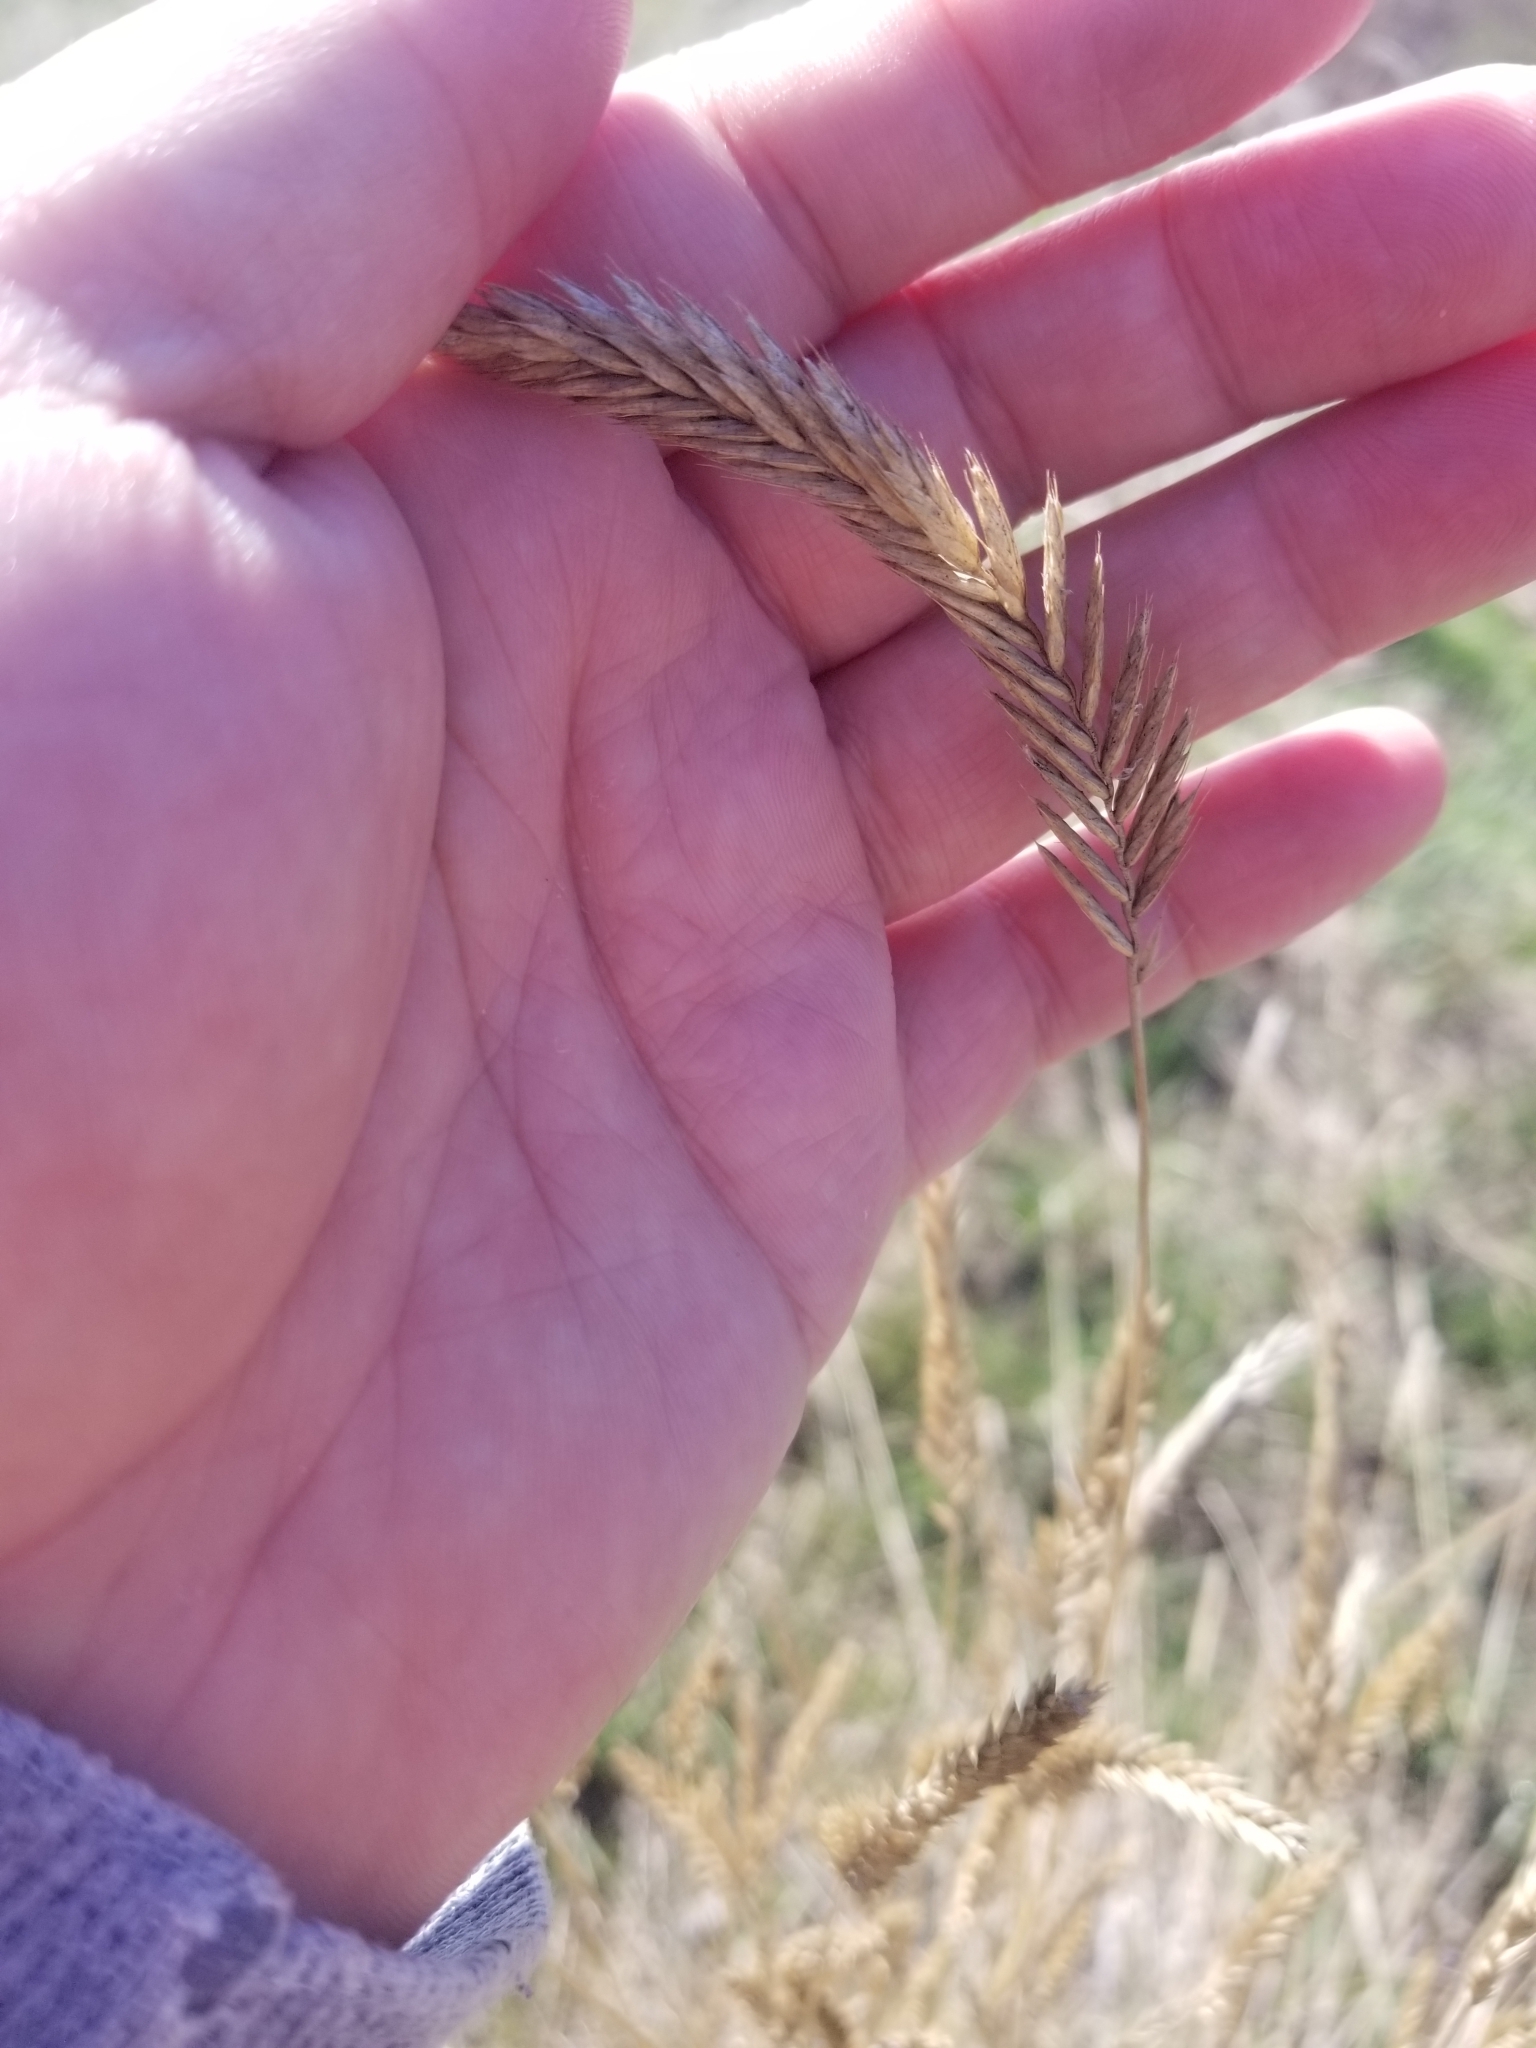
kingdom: Plantae
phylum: Tracheophyta
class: Liliopsida
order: Poales
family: Poaceae
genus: Agropyron
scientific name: Agropyron cristatum
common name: Crested wheatgrass
